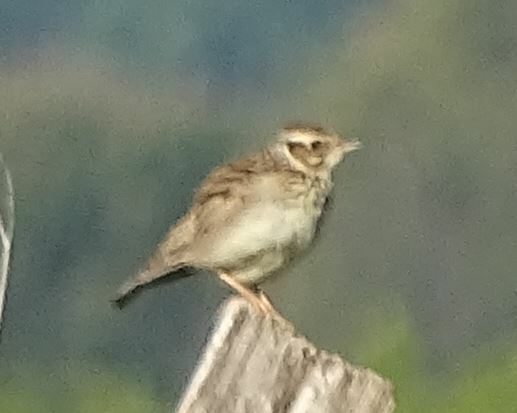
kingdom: Animalia
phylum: Chordata
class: Aves
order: Passeriformes
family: Alaudidae
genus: Lullula
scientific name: Lullula arborea
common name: Woodlark
